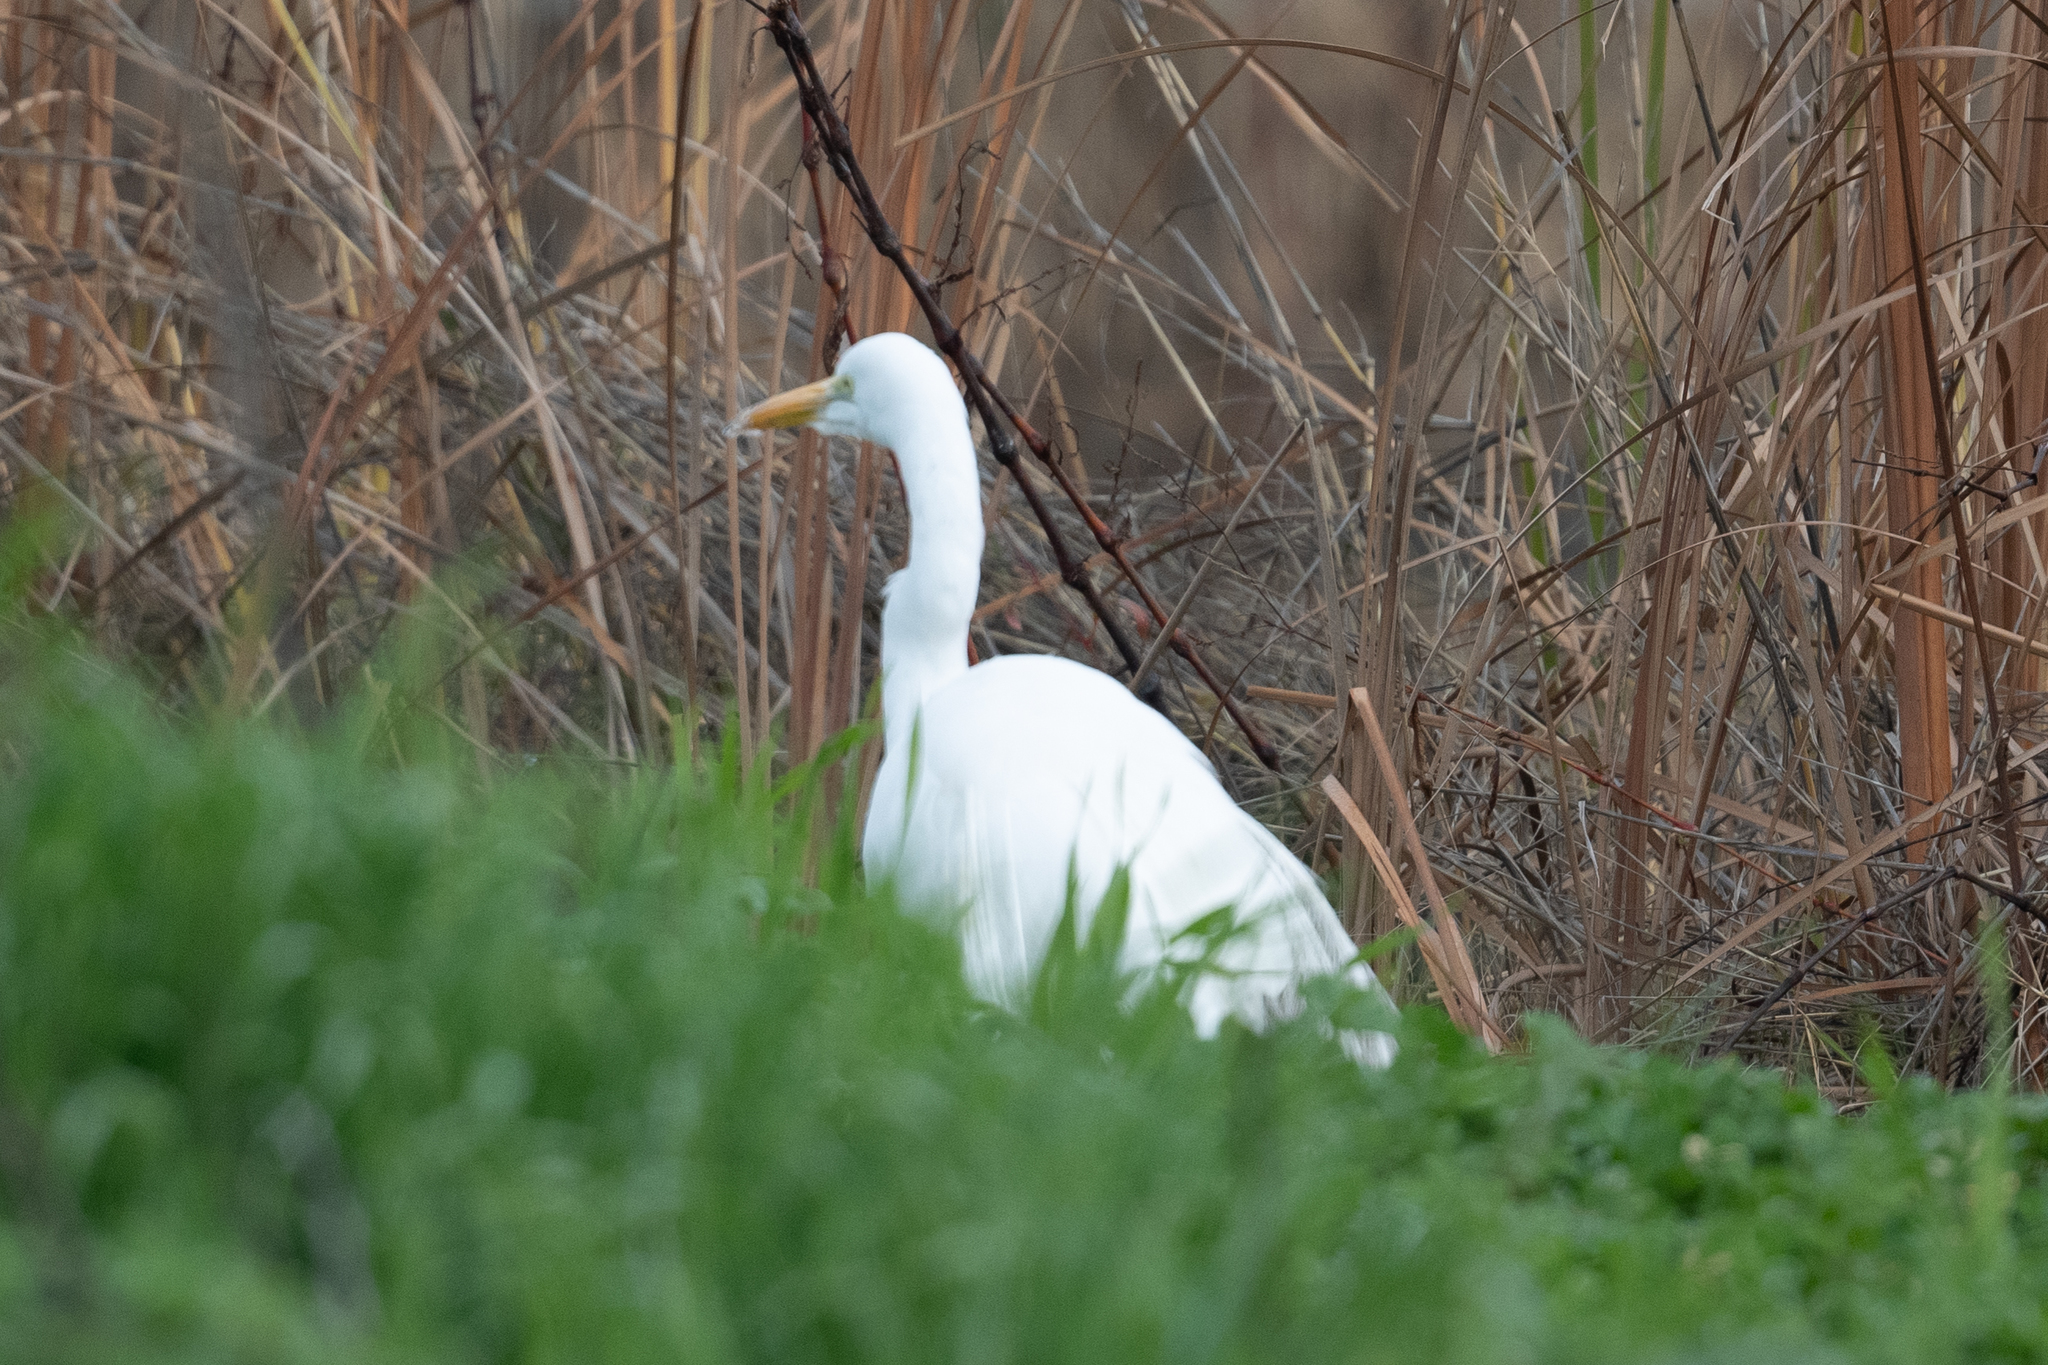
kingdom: Animalia
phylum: Chordata
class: Aves
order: Pelecaniformes
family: Ardeidae
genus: Ardea
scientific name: Ardea alba
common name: Great egret
